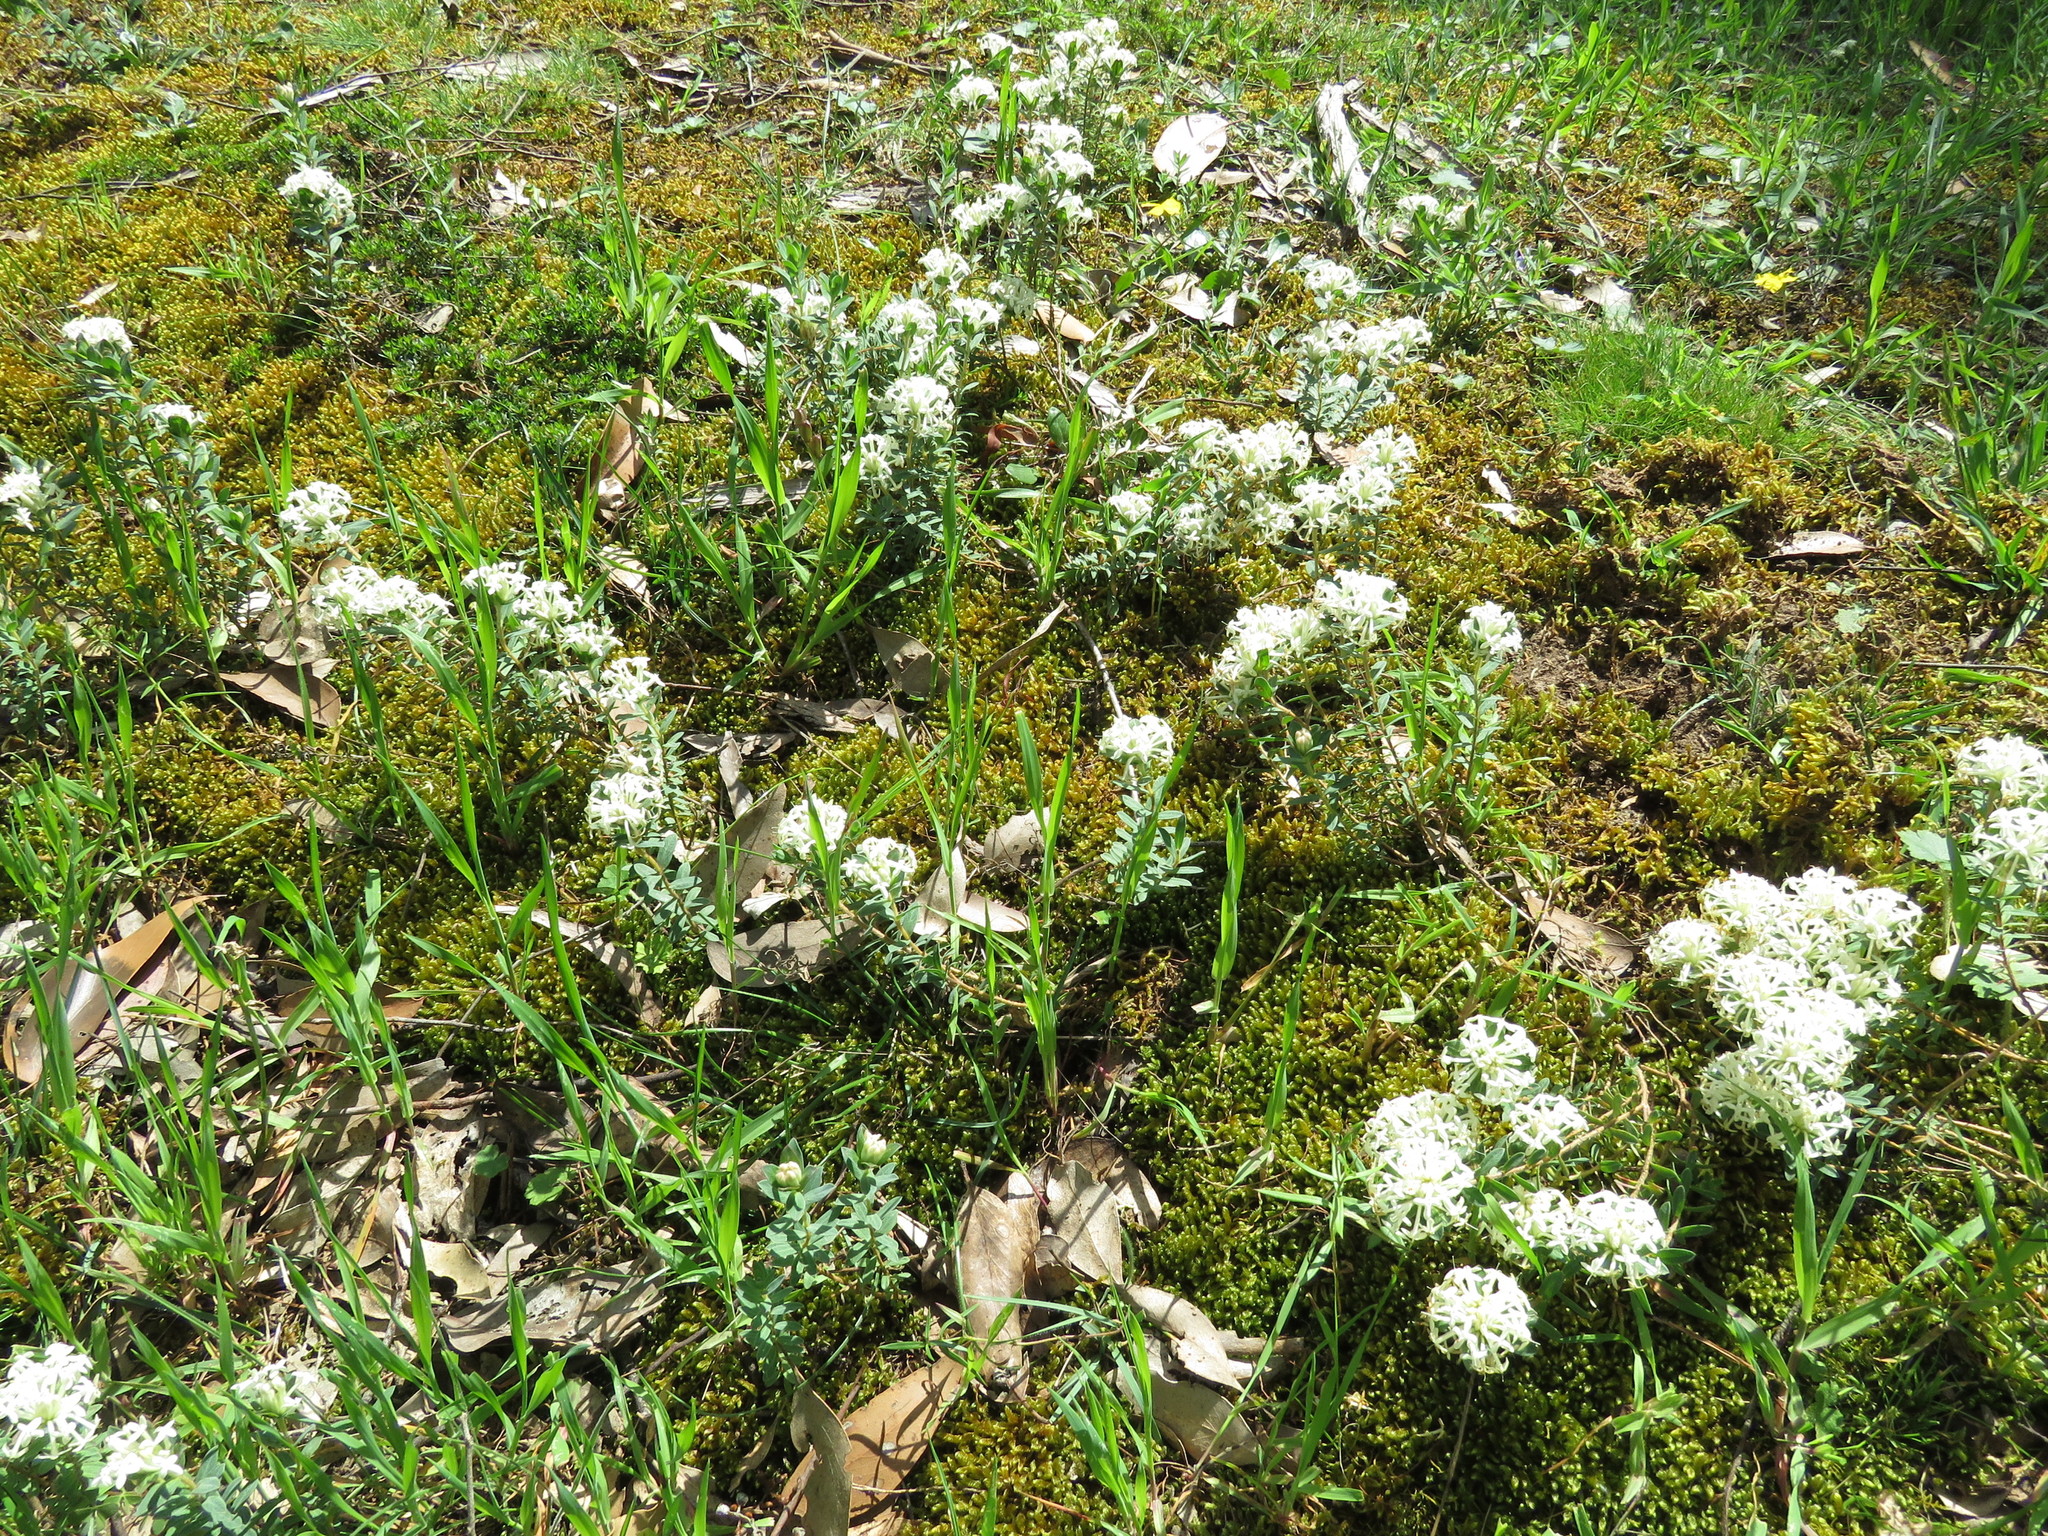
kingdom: Plantae
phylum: Tracheophyta
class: Magnoliopsida
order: Malvales
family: Thymelaeaceae
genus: Pimelea
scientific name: Pimelea humilis
